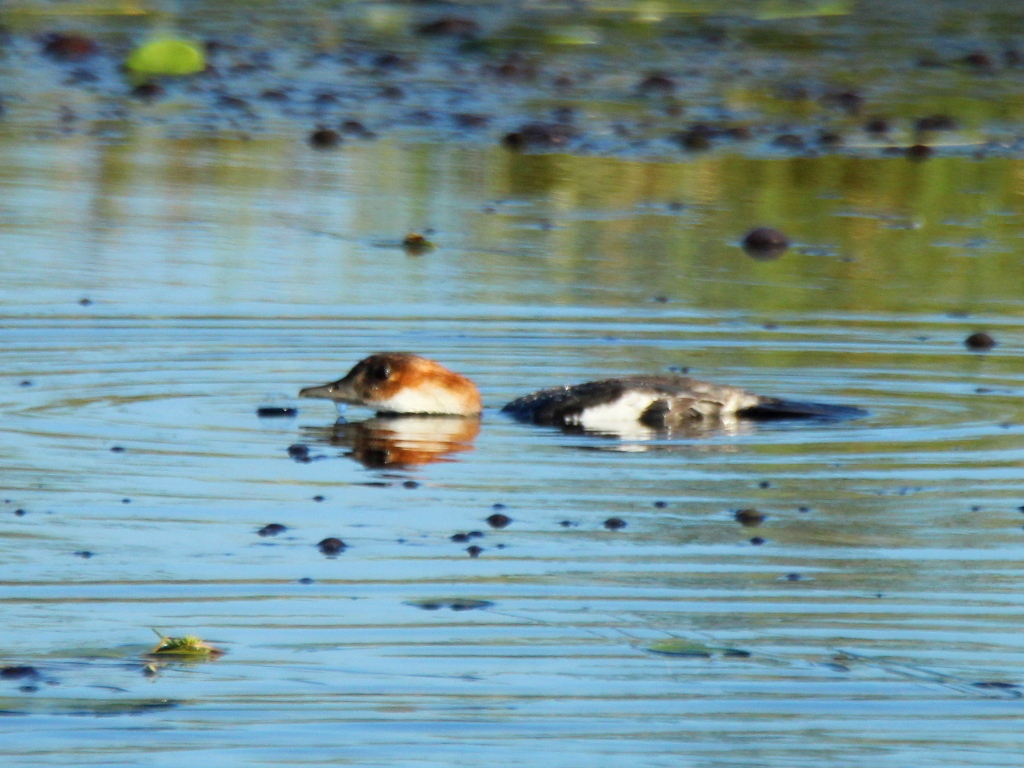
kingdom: Animalia
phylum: Chordata
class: Aves
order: Anseriformes
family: Anatidae
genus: Mergellus
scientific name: Mergellus albellus
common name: Smew
